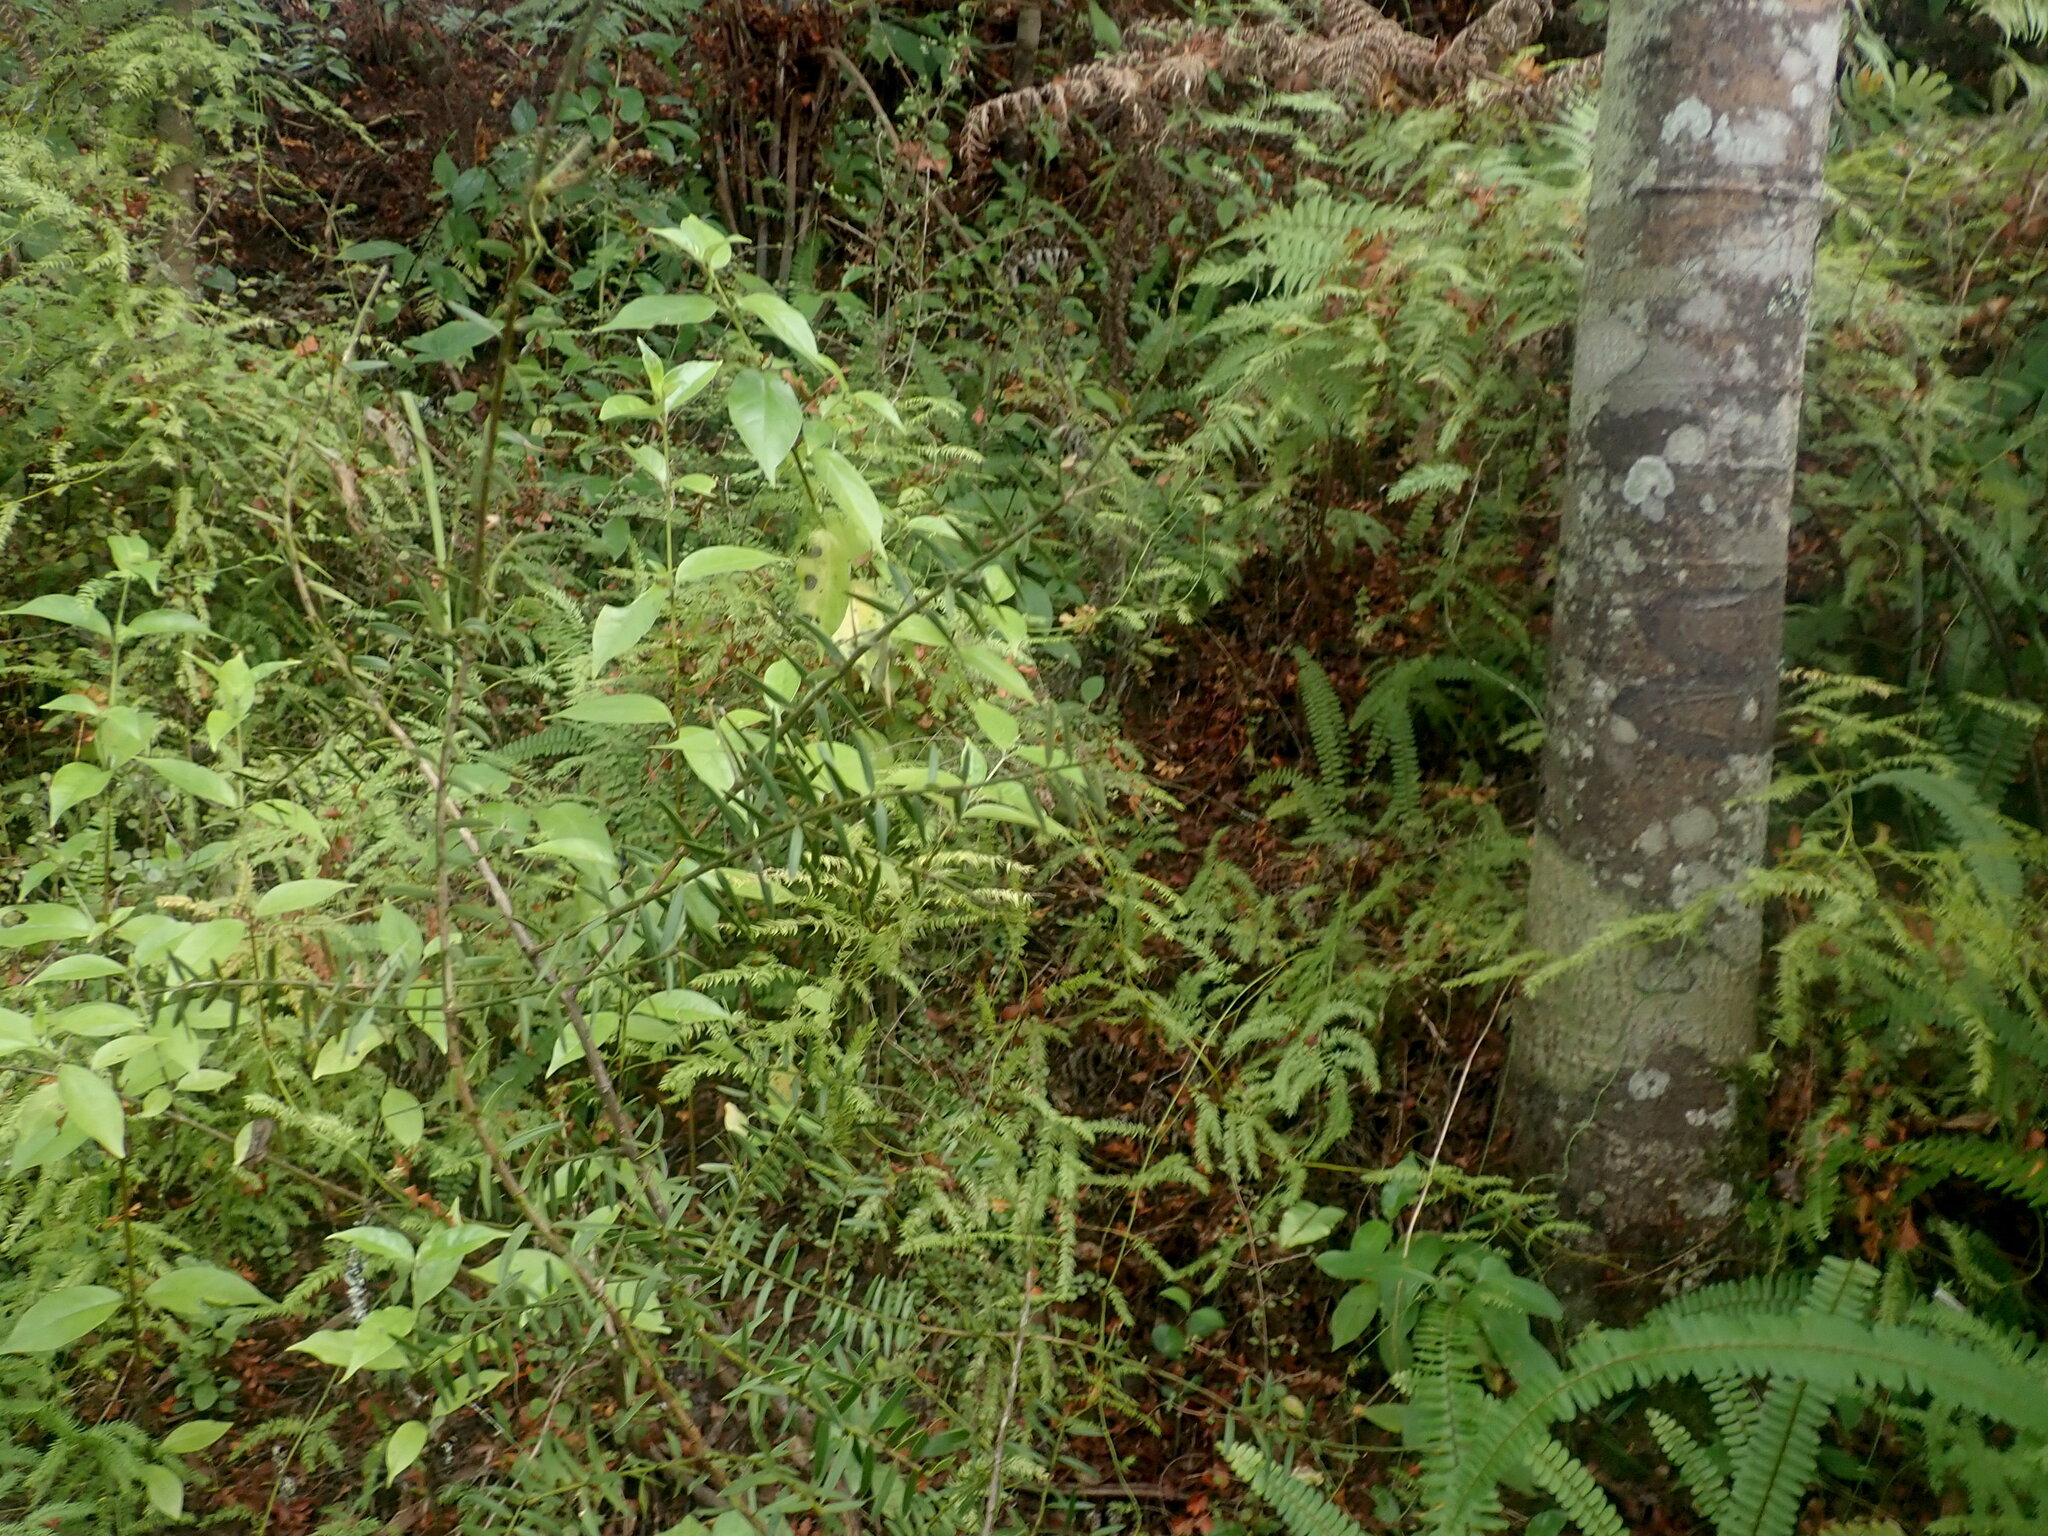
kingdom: Plantae
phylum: Tracheophyta
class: Pinopsida
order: Pinales
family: Podocarpaceae
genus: Podocarpus
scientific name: Podocarpus totara
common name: Totara
